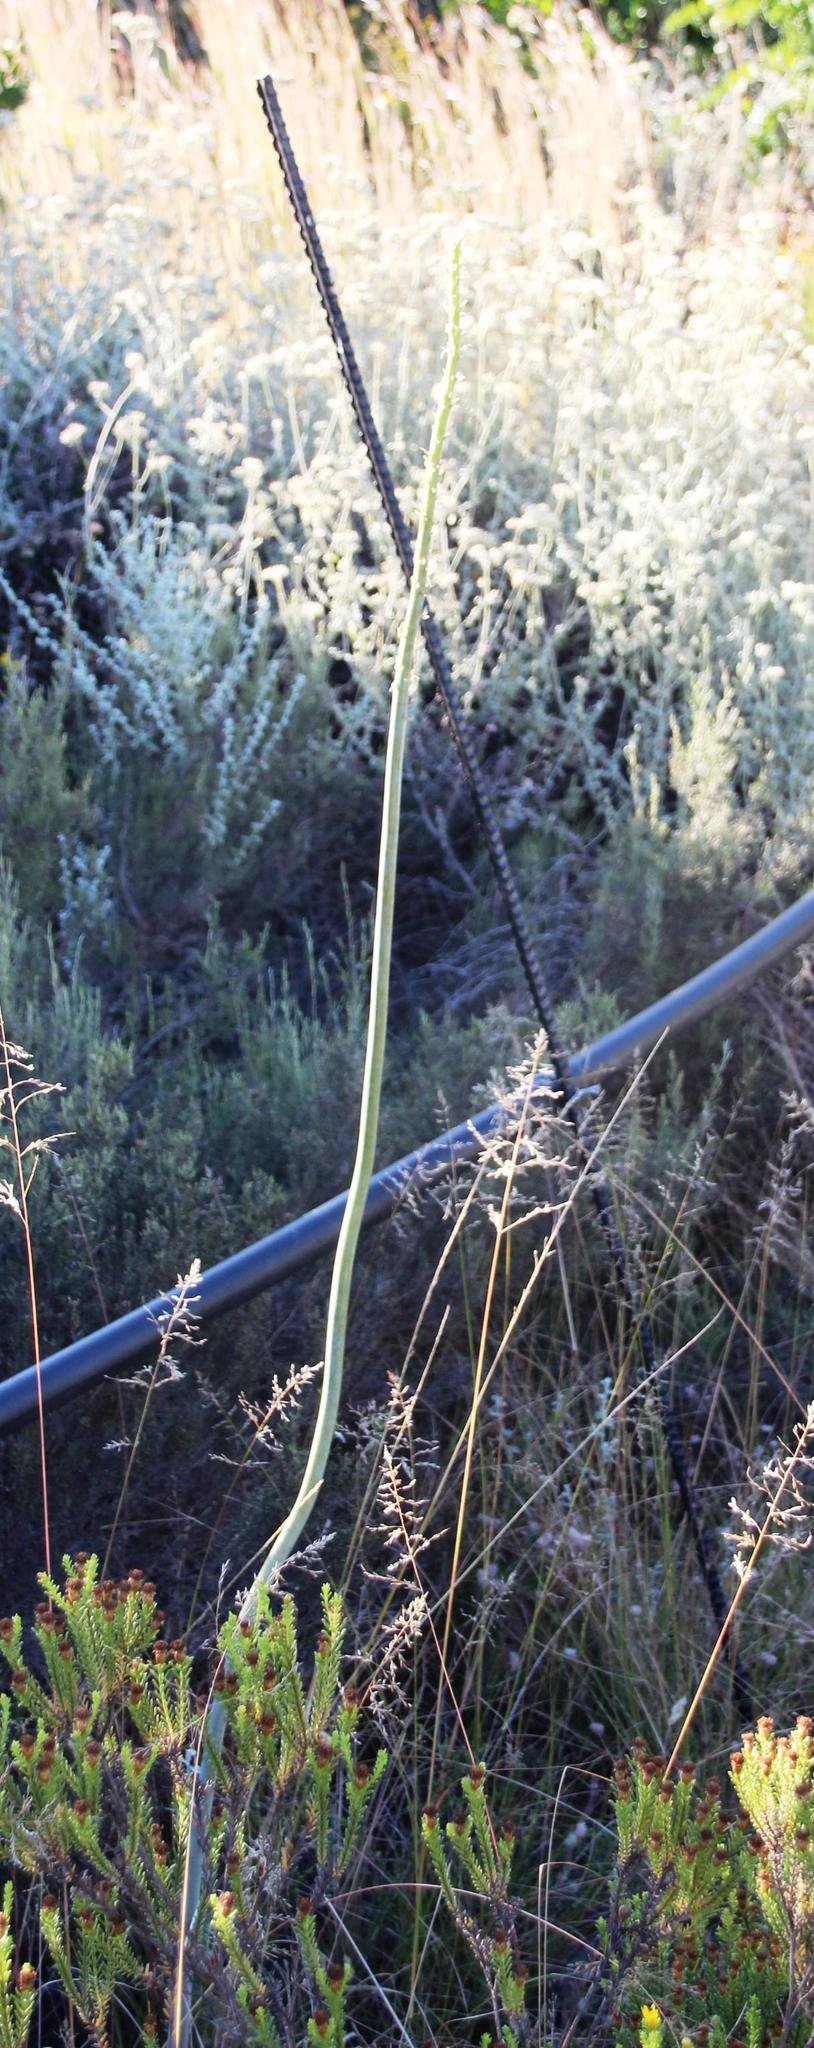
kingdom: Plantae
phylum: Tracheophyta
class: Liliopsida
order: Asparagales
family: Asparagaceae
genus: Drimia
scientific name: Drimia capensis
